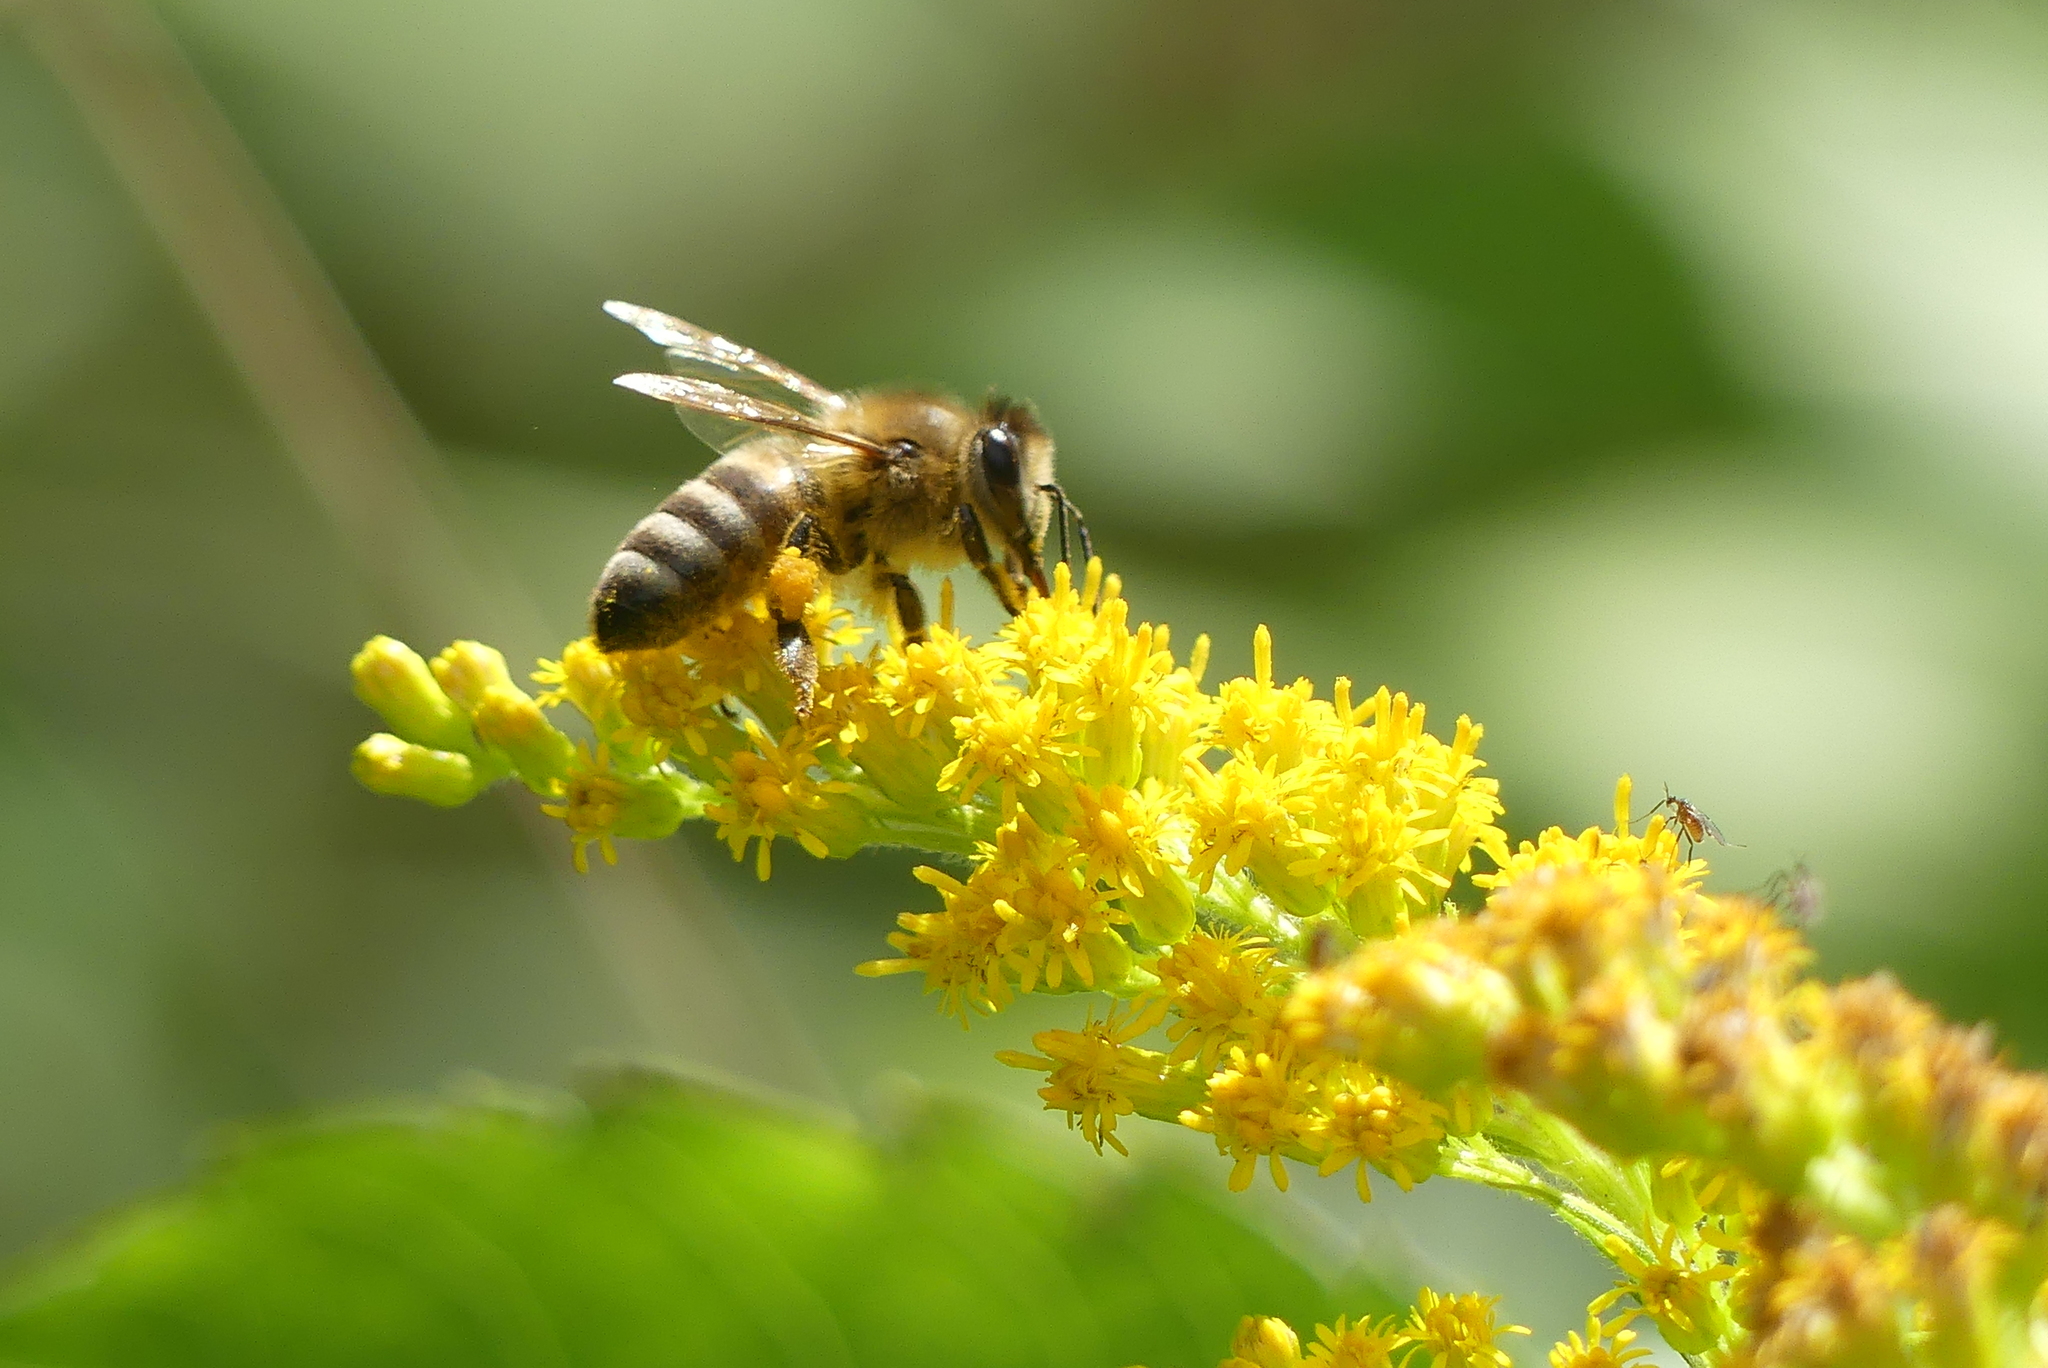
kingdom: Animalia
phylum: Arthropoda
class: Insecta
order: Hymenoptera
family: Apidae
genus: Apis
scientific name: Apis mellifera
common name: Honey bee
